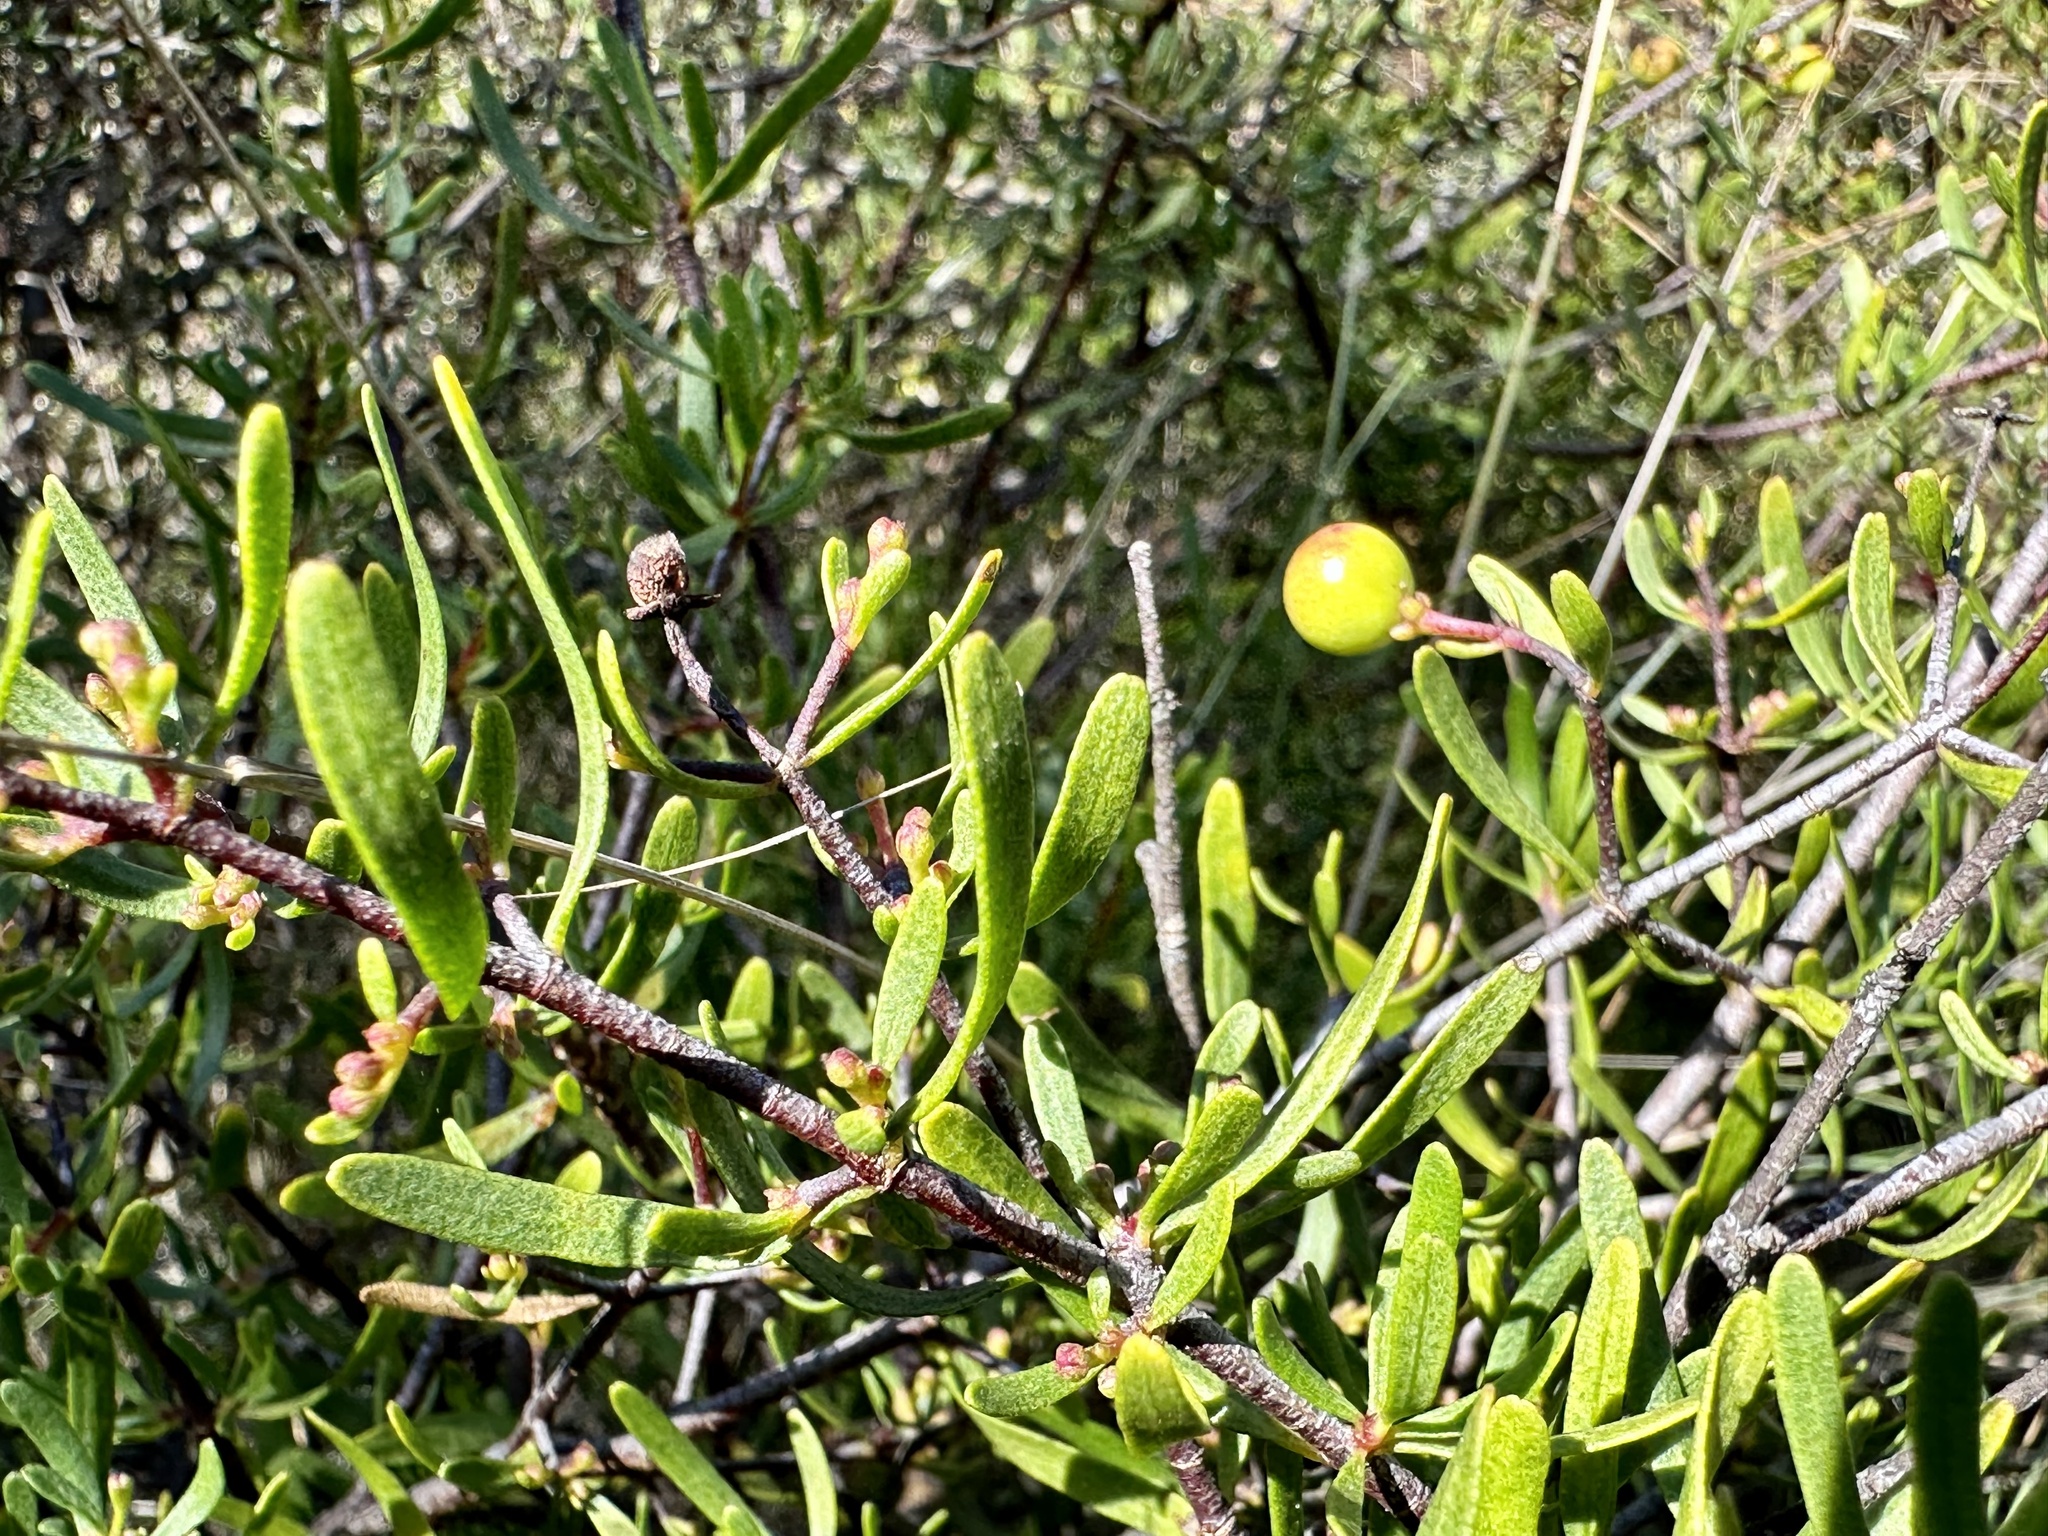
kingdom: Plantae
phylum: Tracheophyta
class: Magnoliopsida
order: Sapindales
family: Rutaceae
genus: Cneoridium
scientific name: Cneoridium dumosum
